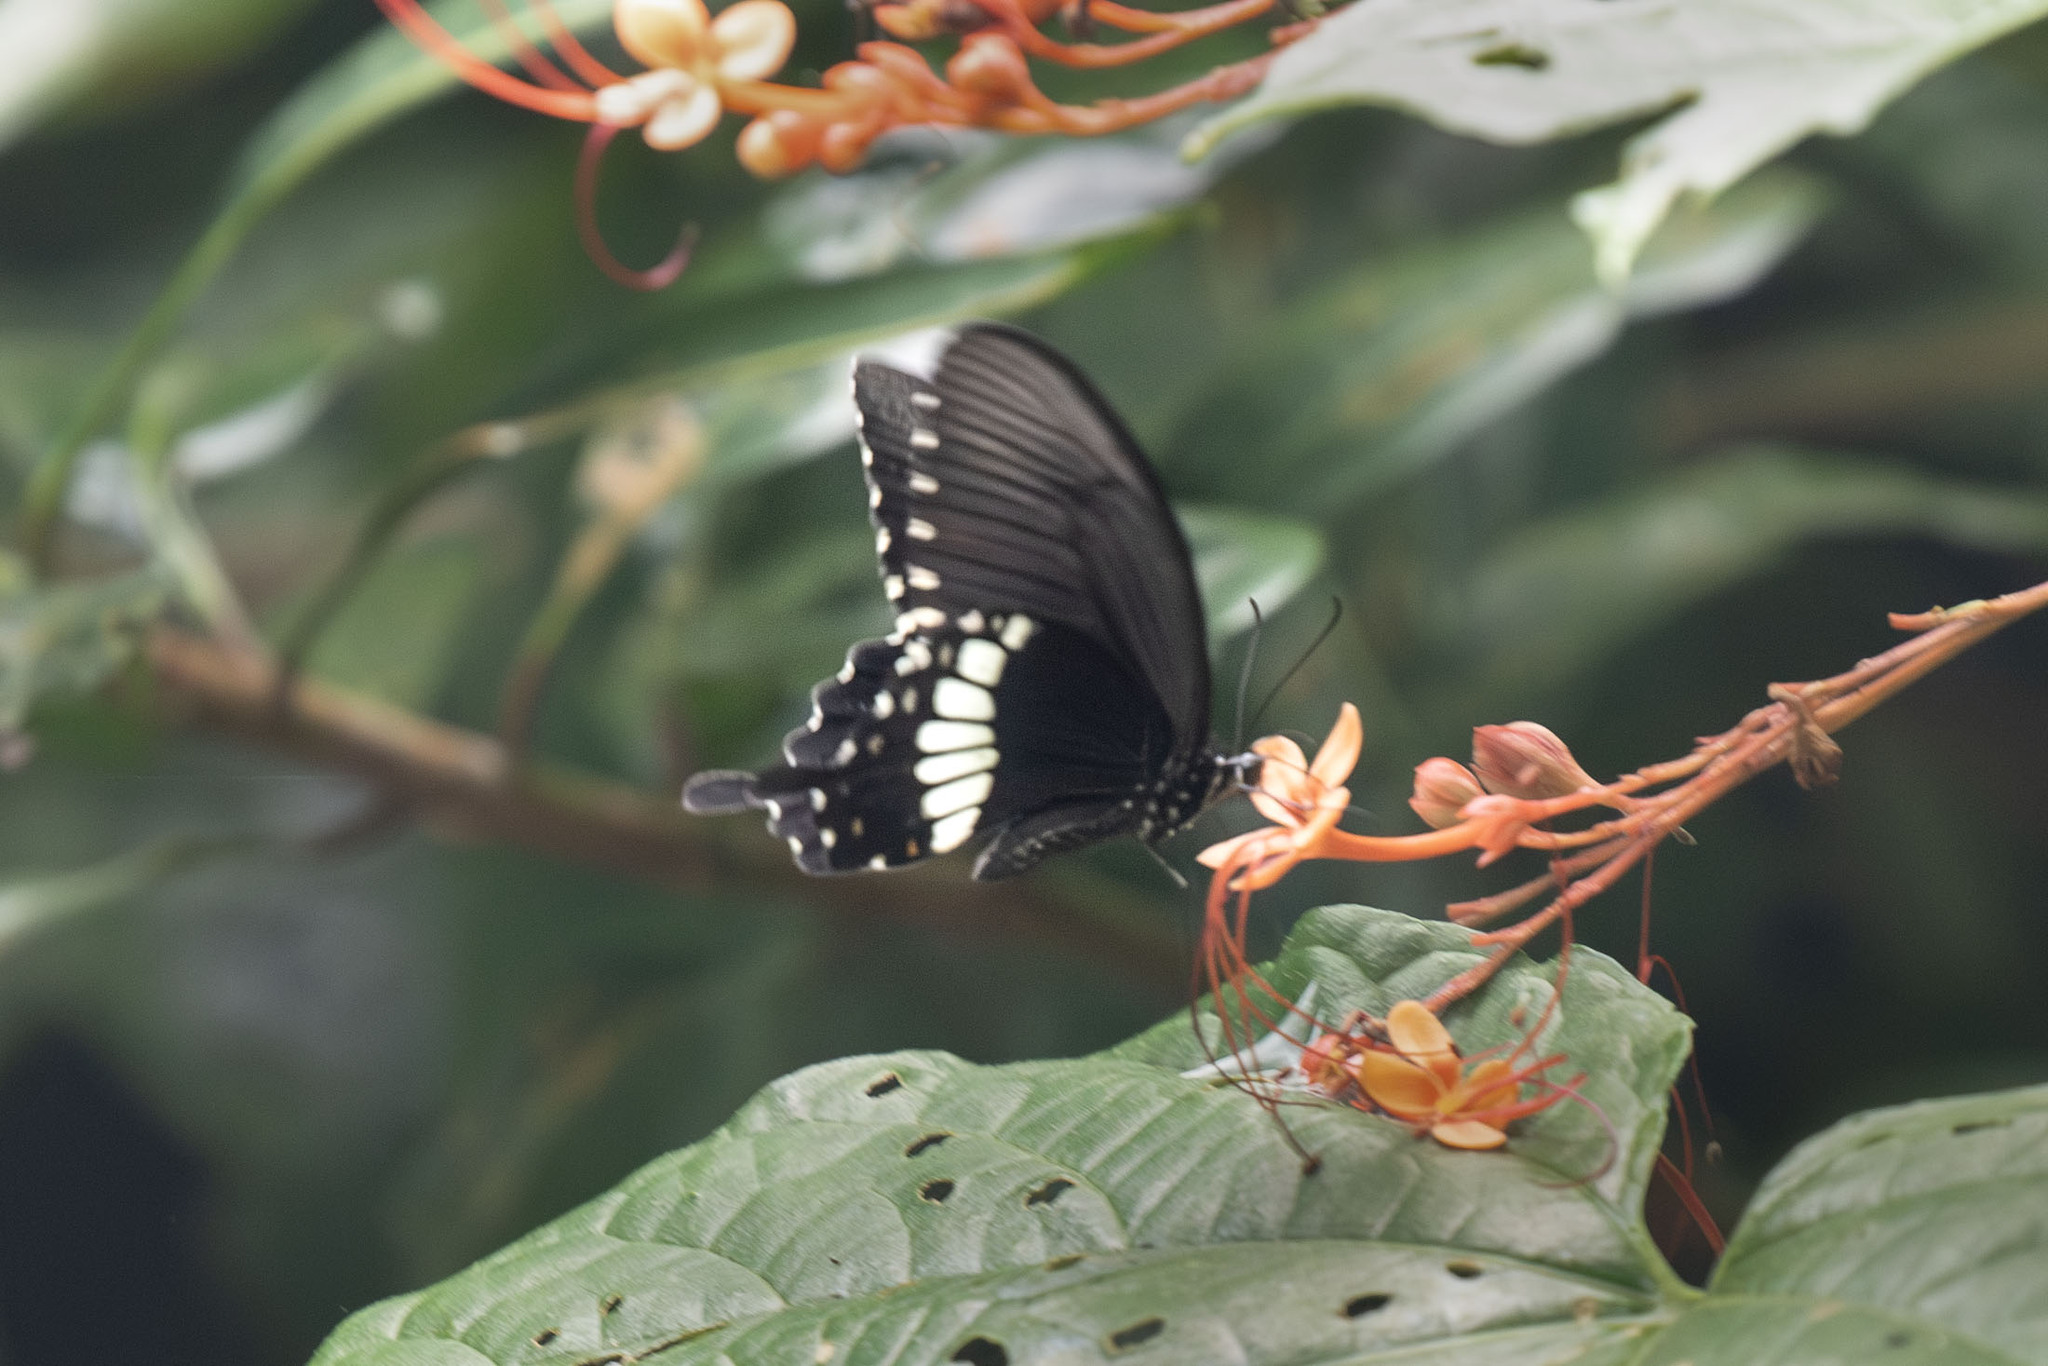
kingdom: Animalia
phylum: Arthropoda
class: Insecta
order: Lepidoptera
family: Papilionidae
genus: Papilio
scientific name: Papilio polytes
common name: Common mormon
